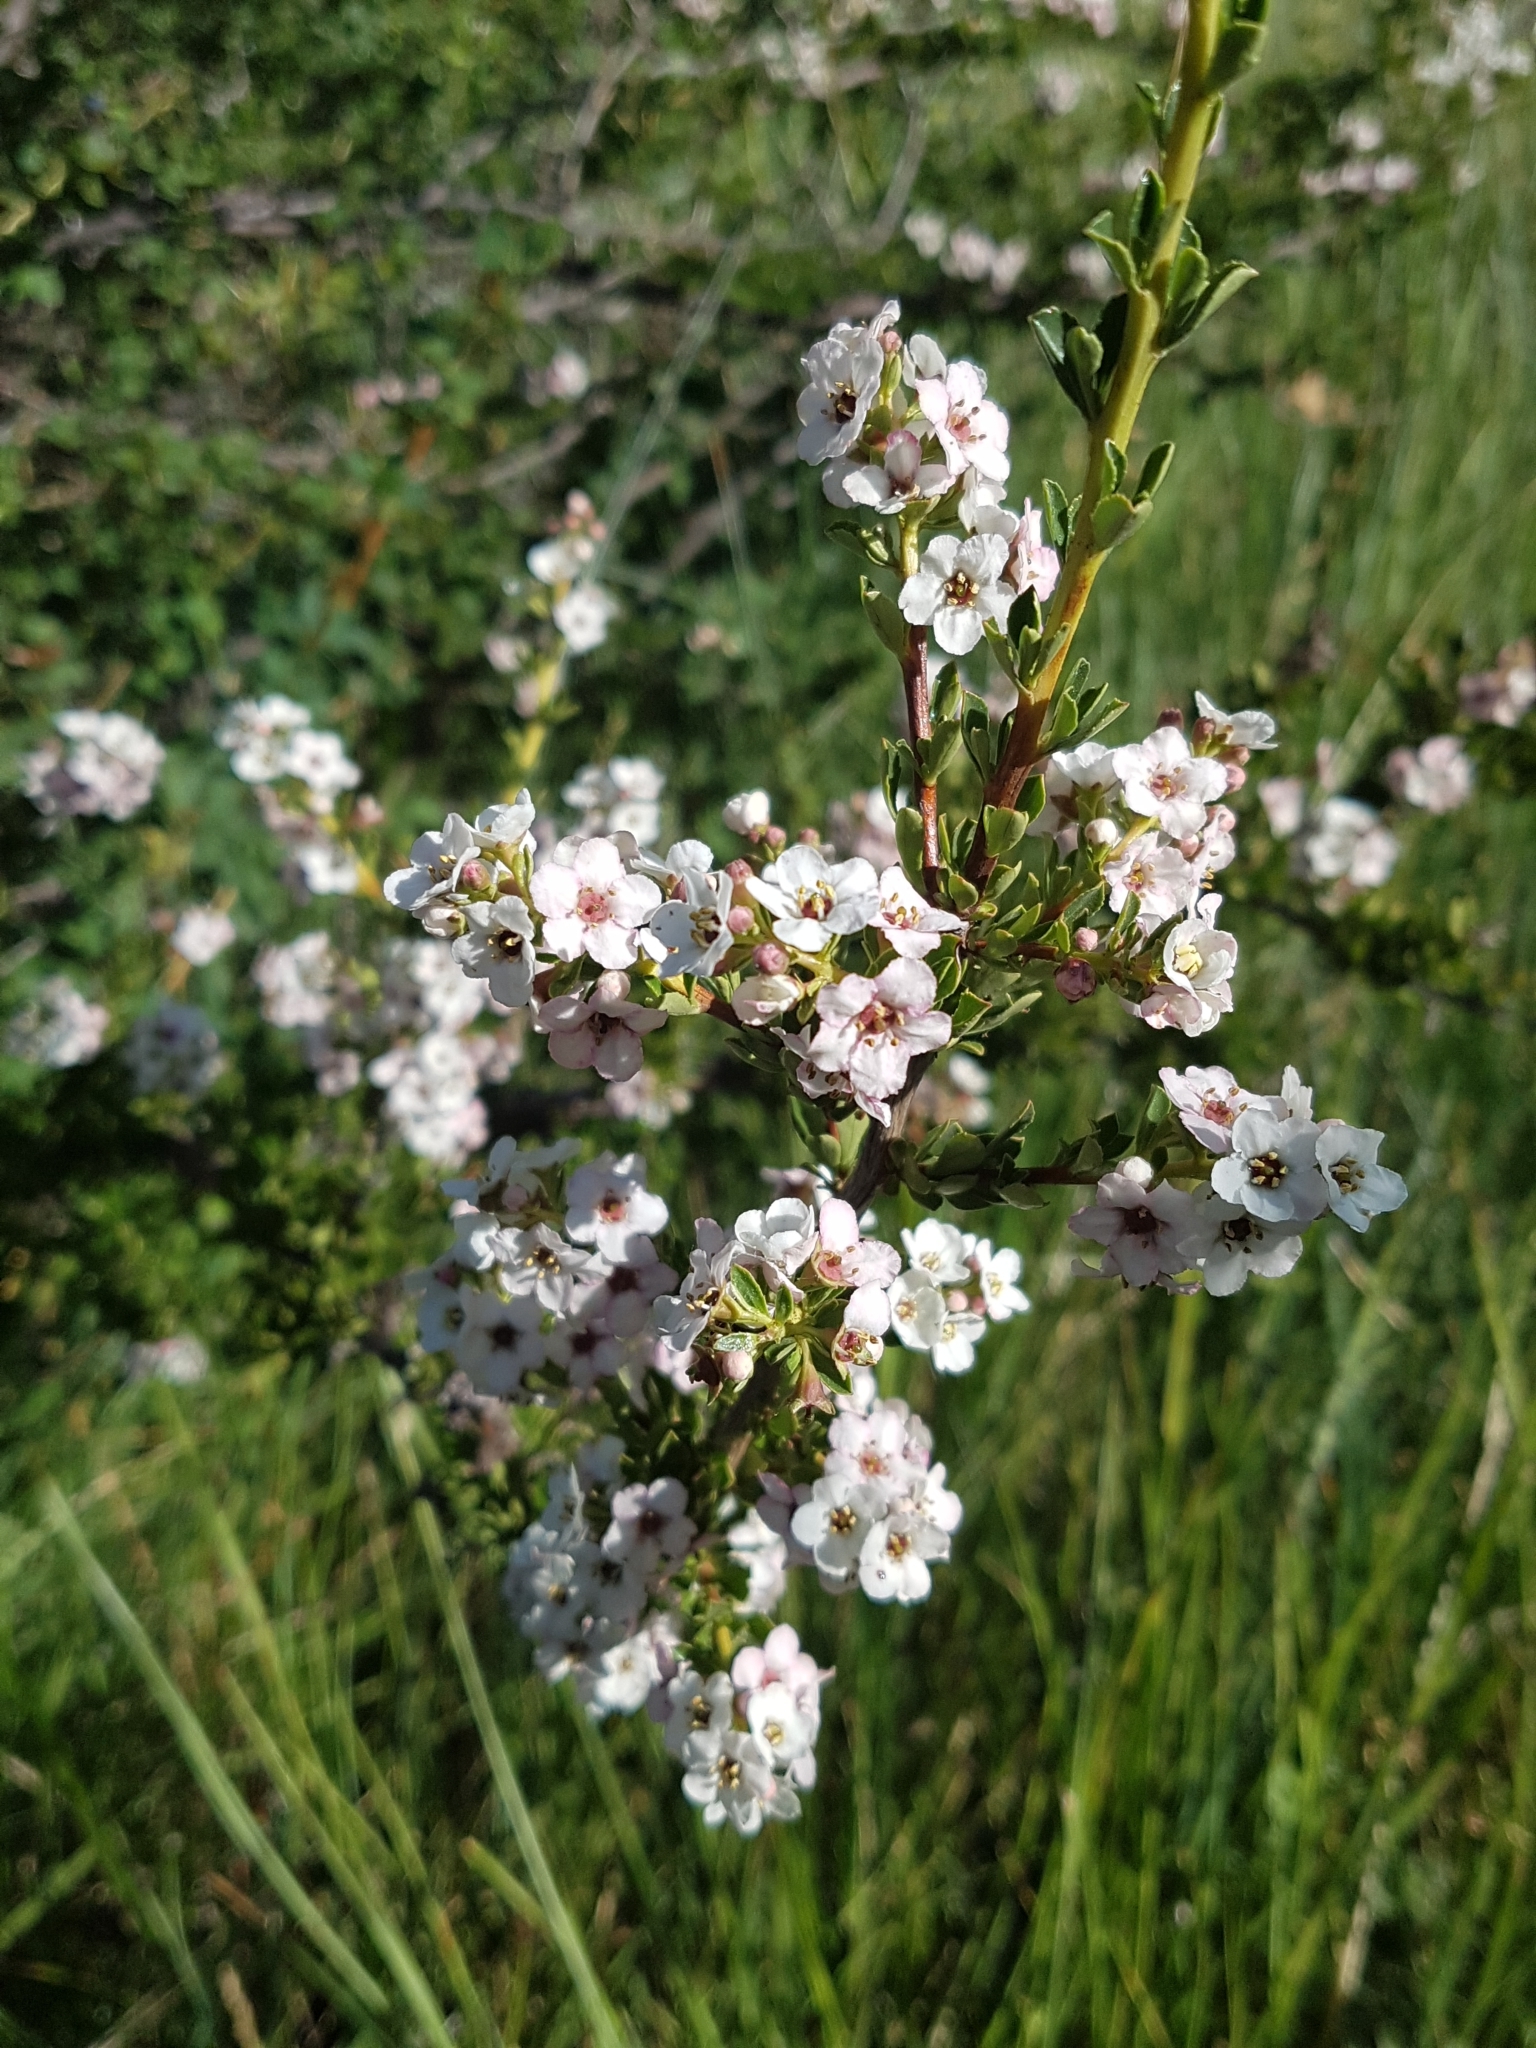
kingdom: Plantae
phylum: Tracheophyta
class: Magnoliopsida
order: Escalloniales
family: Escalloniaceae
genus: Escallonia
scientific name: Escallonia virgata
